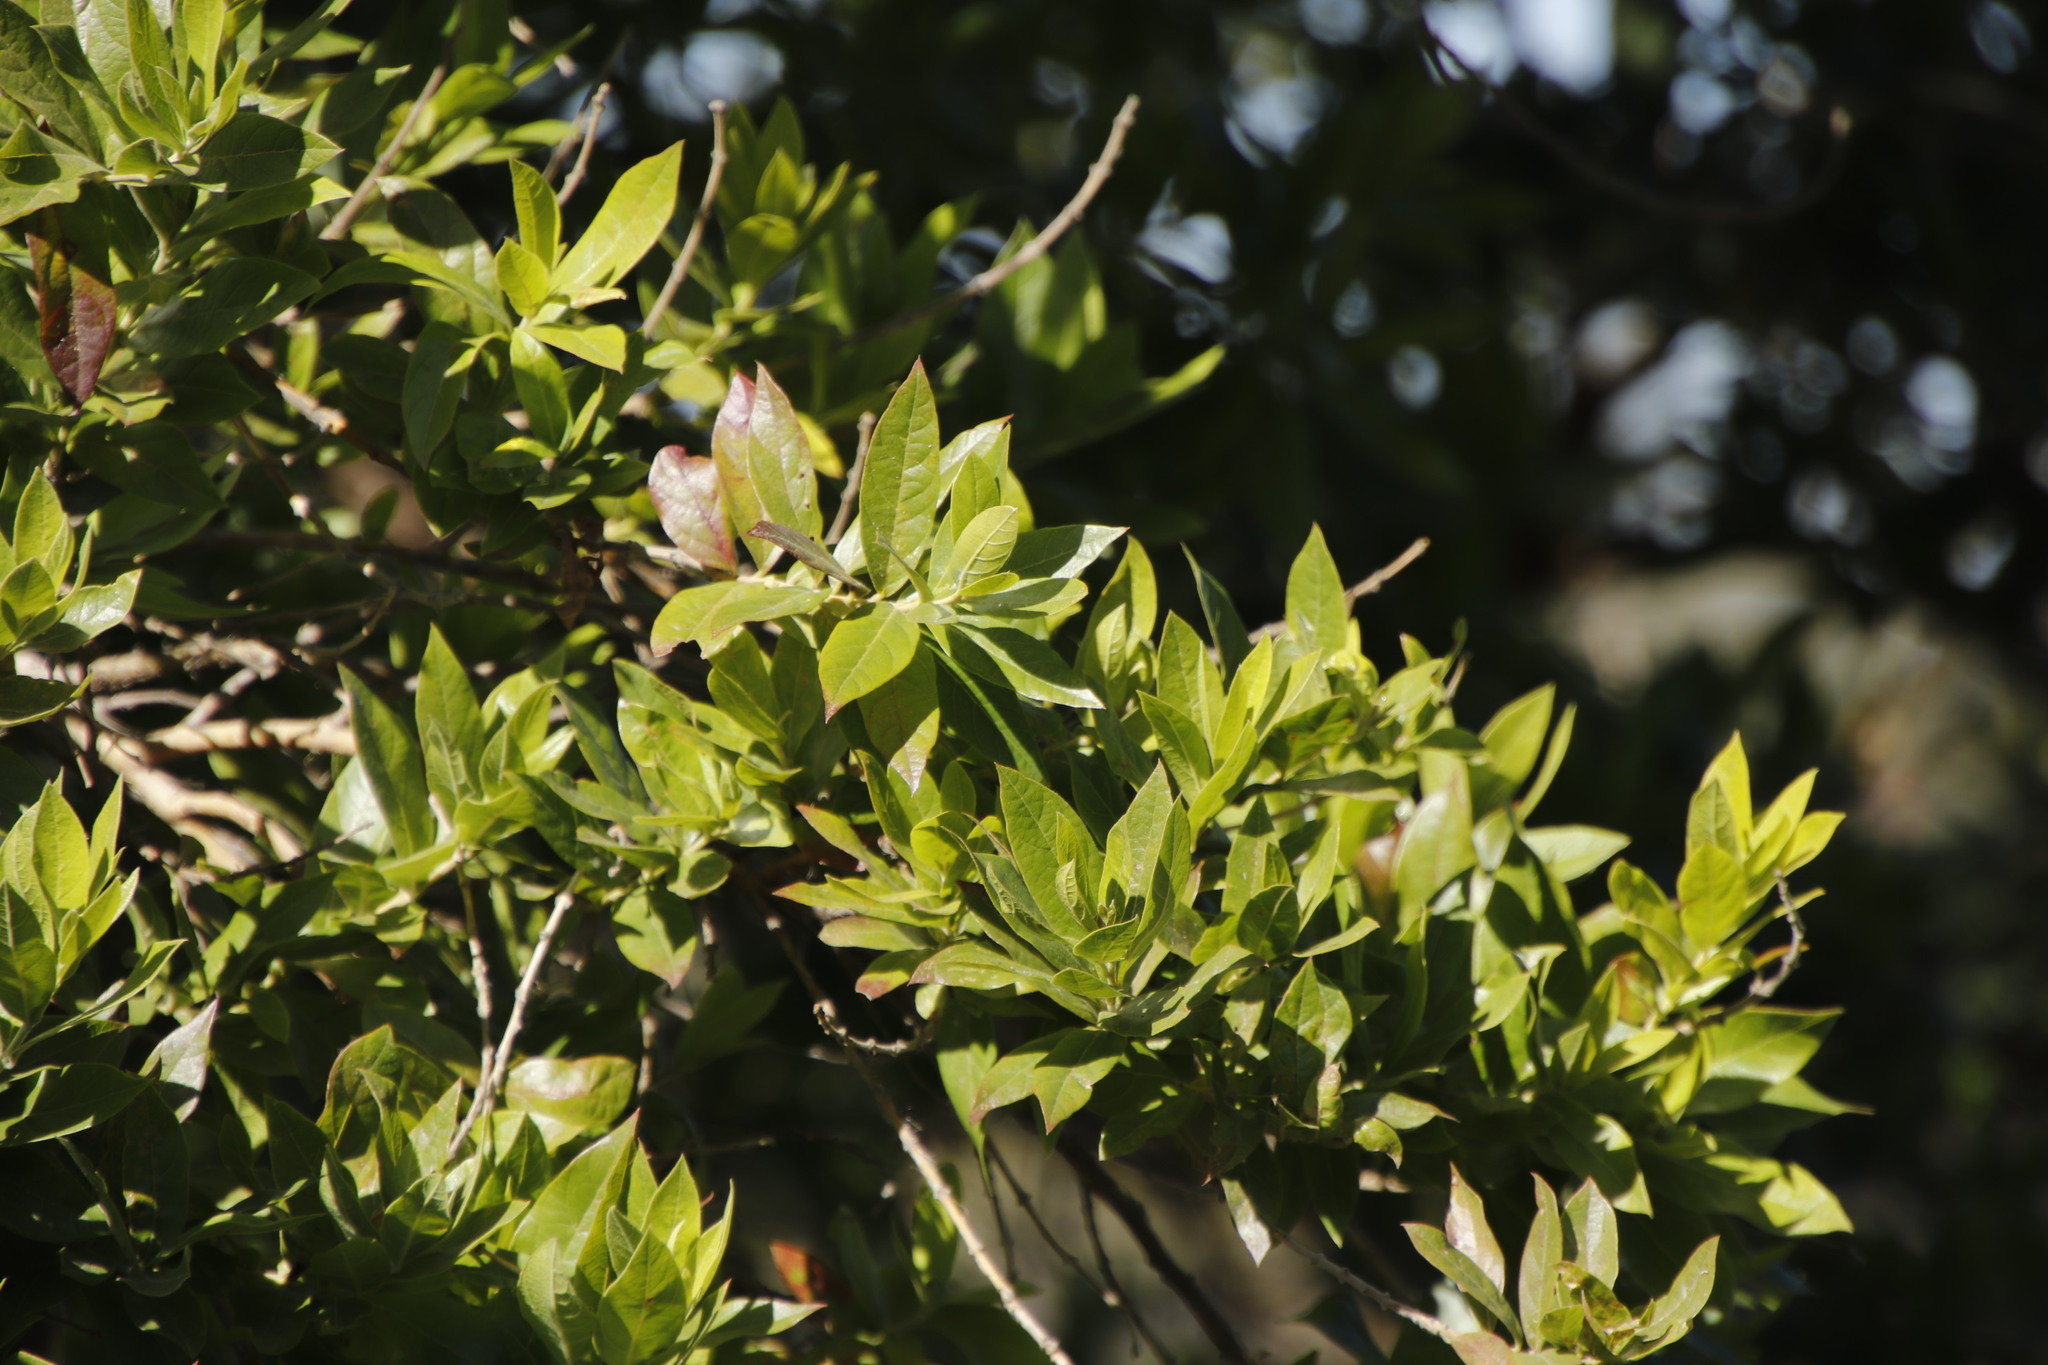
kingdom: Plantae
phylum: Tracheophyta
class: Magnoliopsida
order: Myrtales
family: Combretaceae
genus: Combretum
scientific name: Combretum erythrophyllum
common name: Bush-willow
